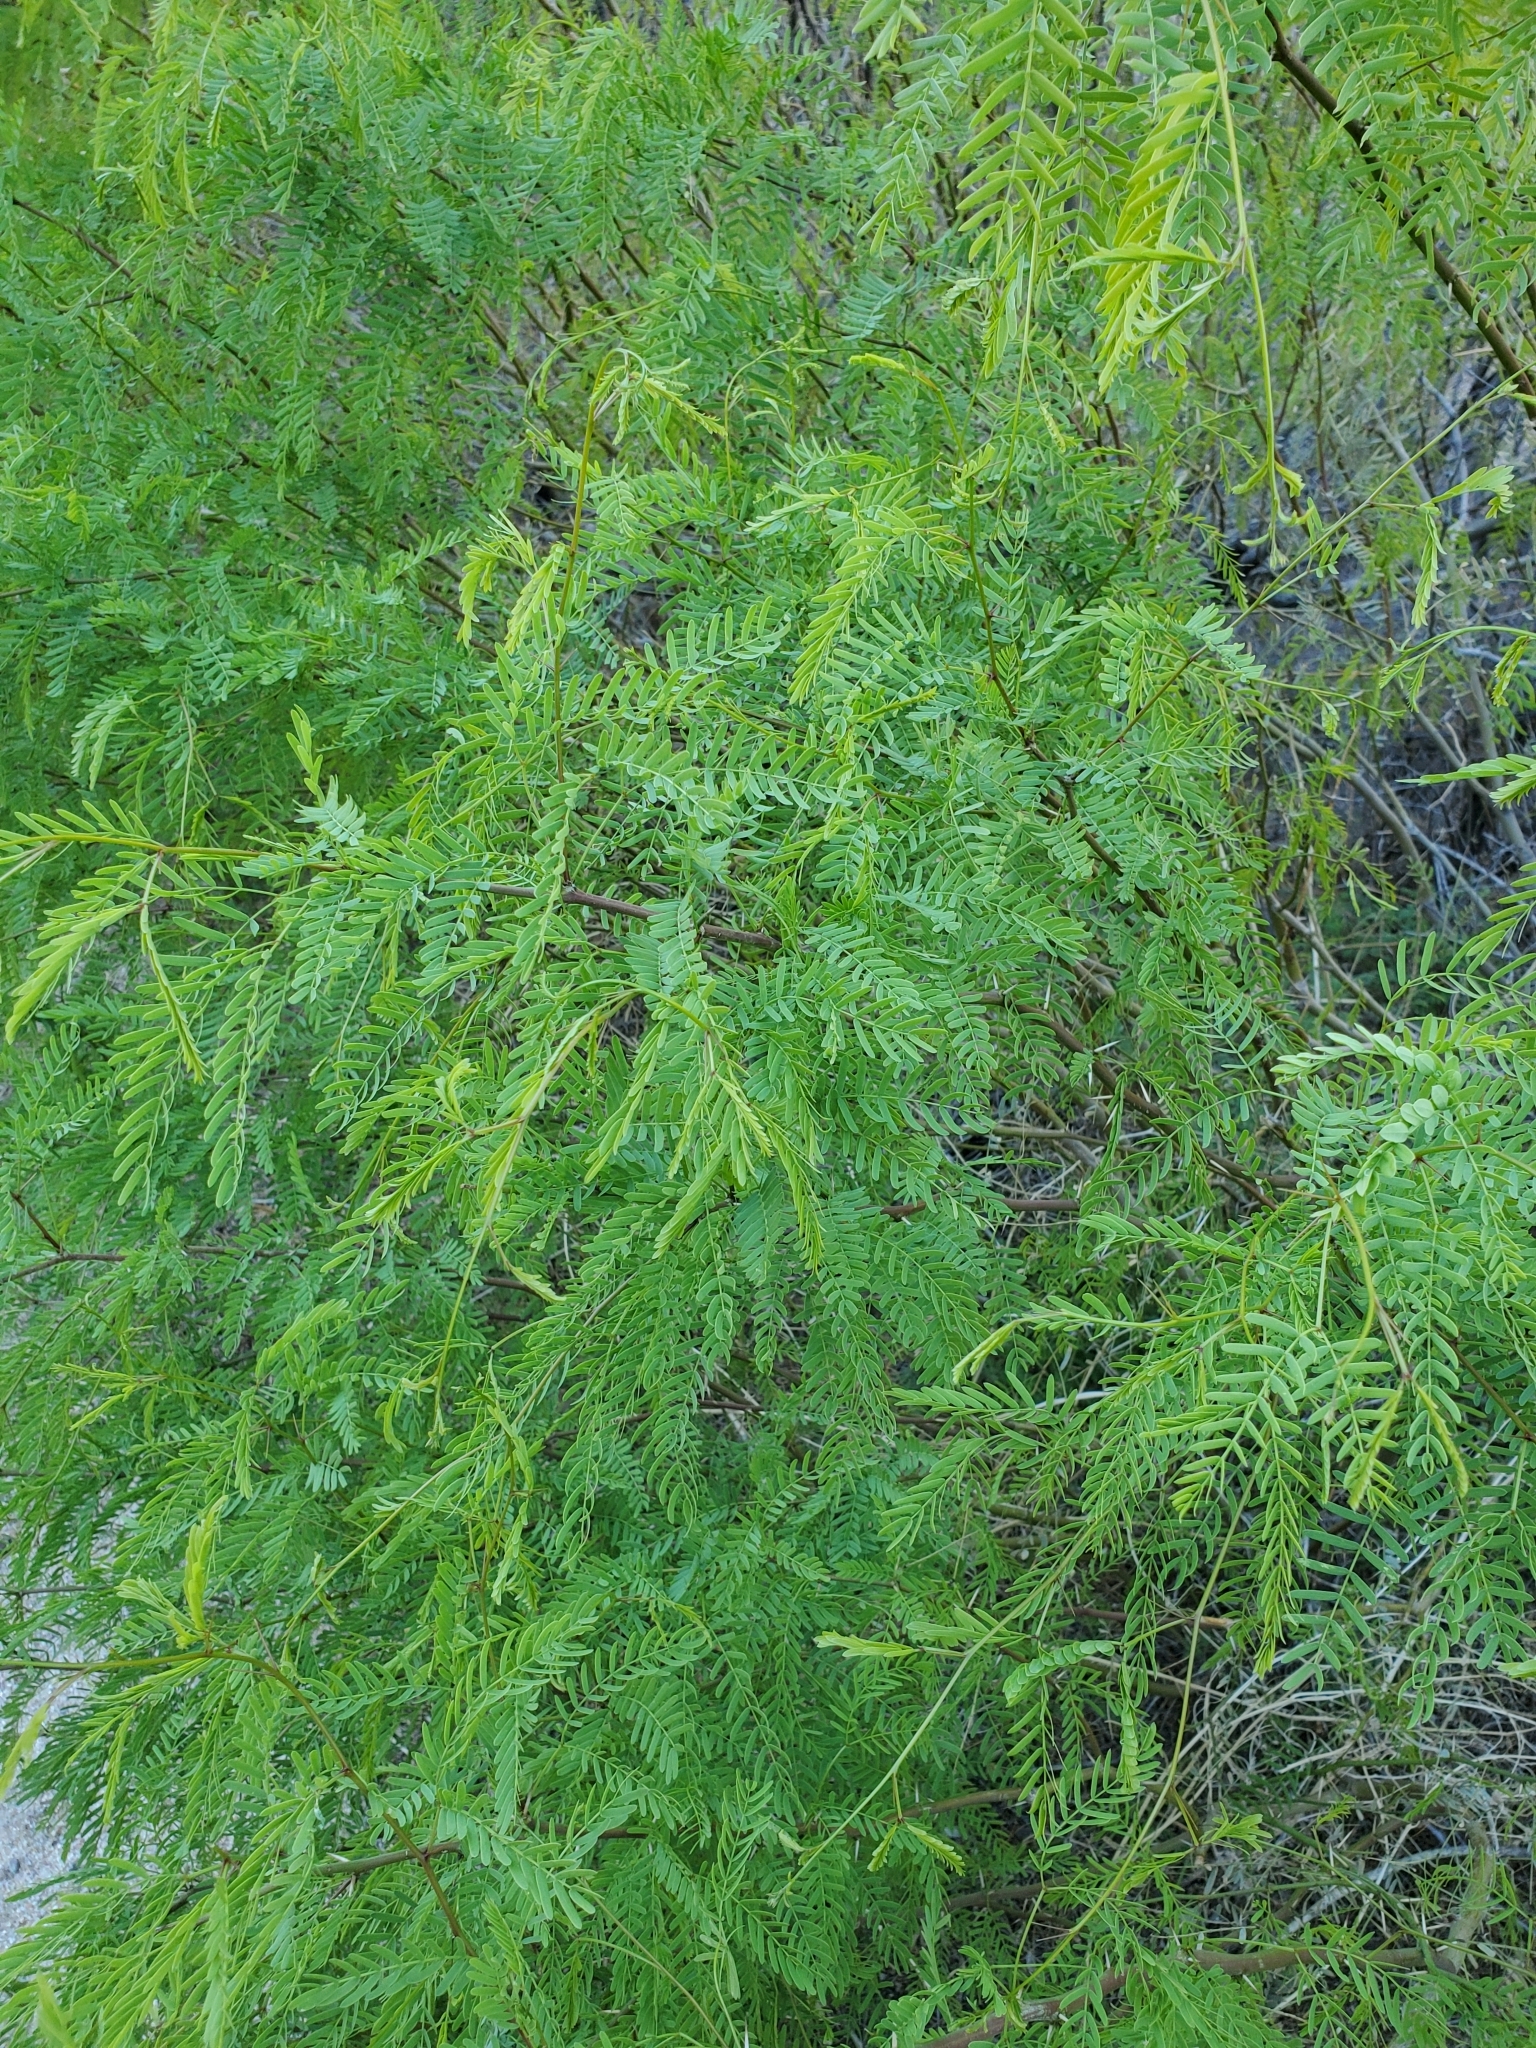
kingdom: Plantae
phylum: Tracheophyta
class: Magnoliopsida
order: Fabales
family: Fabaceae
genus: Prosopis
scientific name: Prosopis pubescens
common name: Screw-bean
